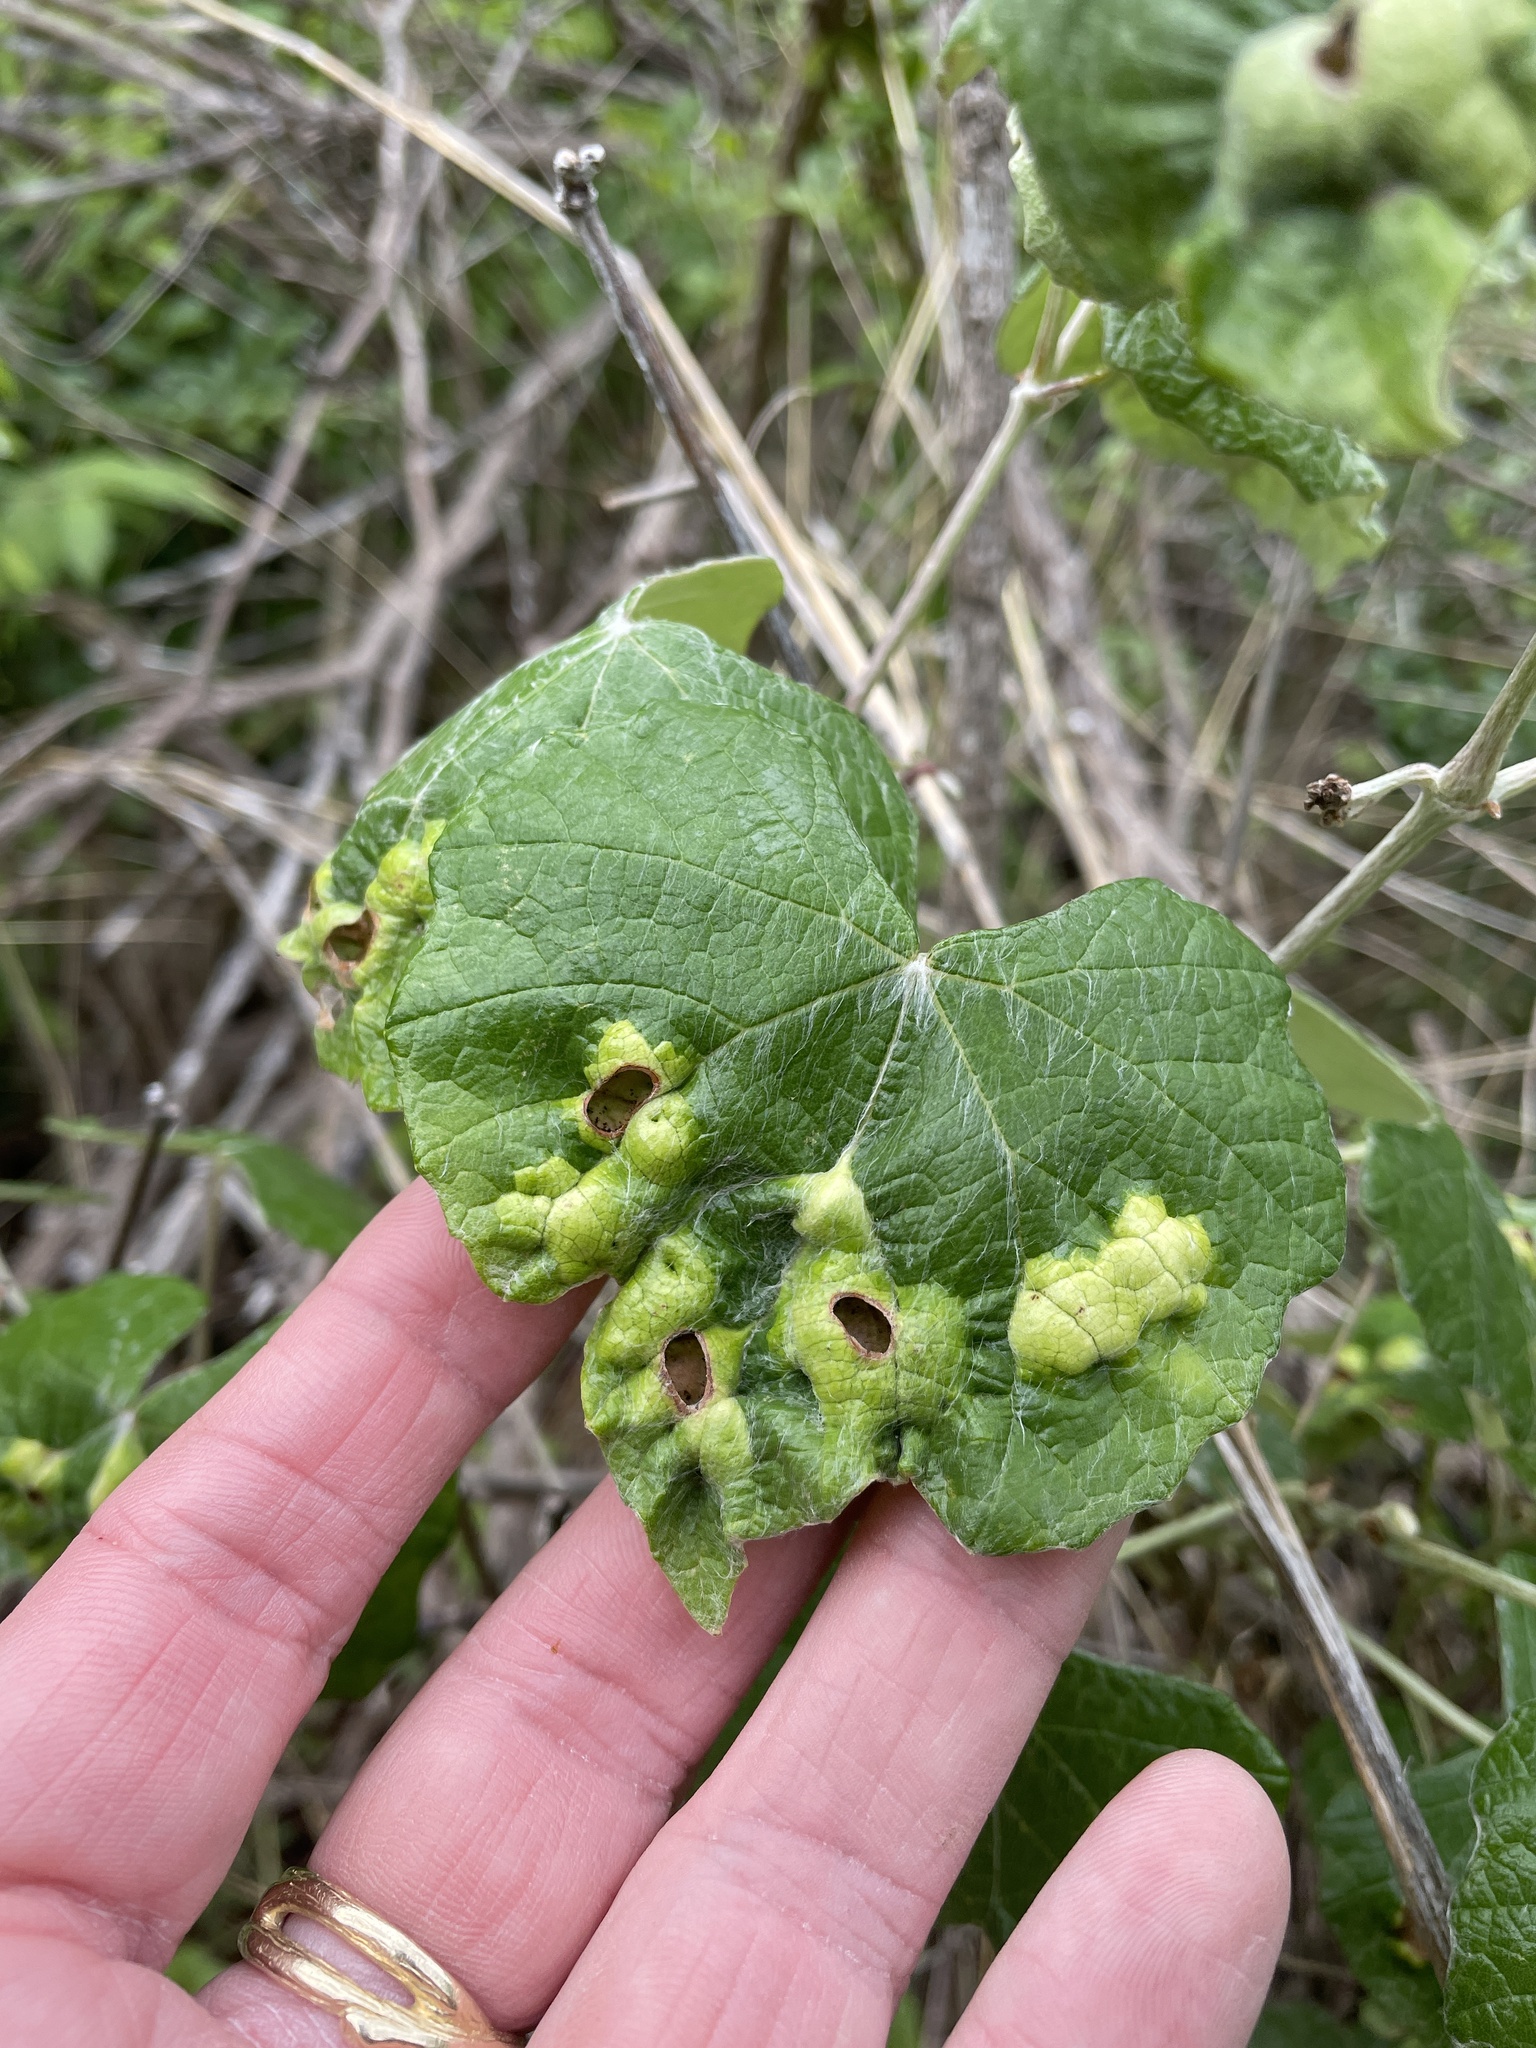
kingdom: Animalia
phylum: Arthropoda
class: Insecta
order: Lepidoptera
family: Heliozelidae
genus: Heliozela
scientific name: Heliozela aesella
